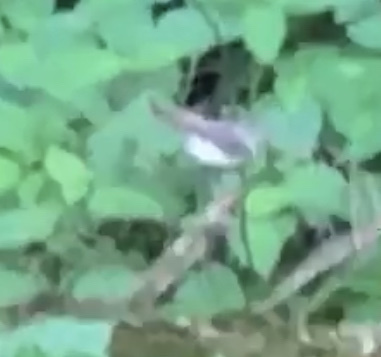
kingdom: Animalia
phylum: Chordata
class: Aves
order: Passeriformes
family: Parulidae
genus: Parkesia
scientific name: Parkesia motacilla
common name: Louisiana waterthrush
